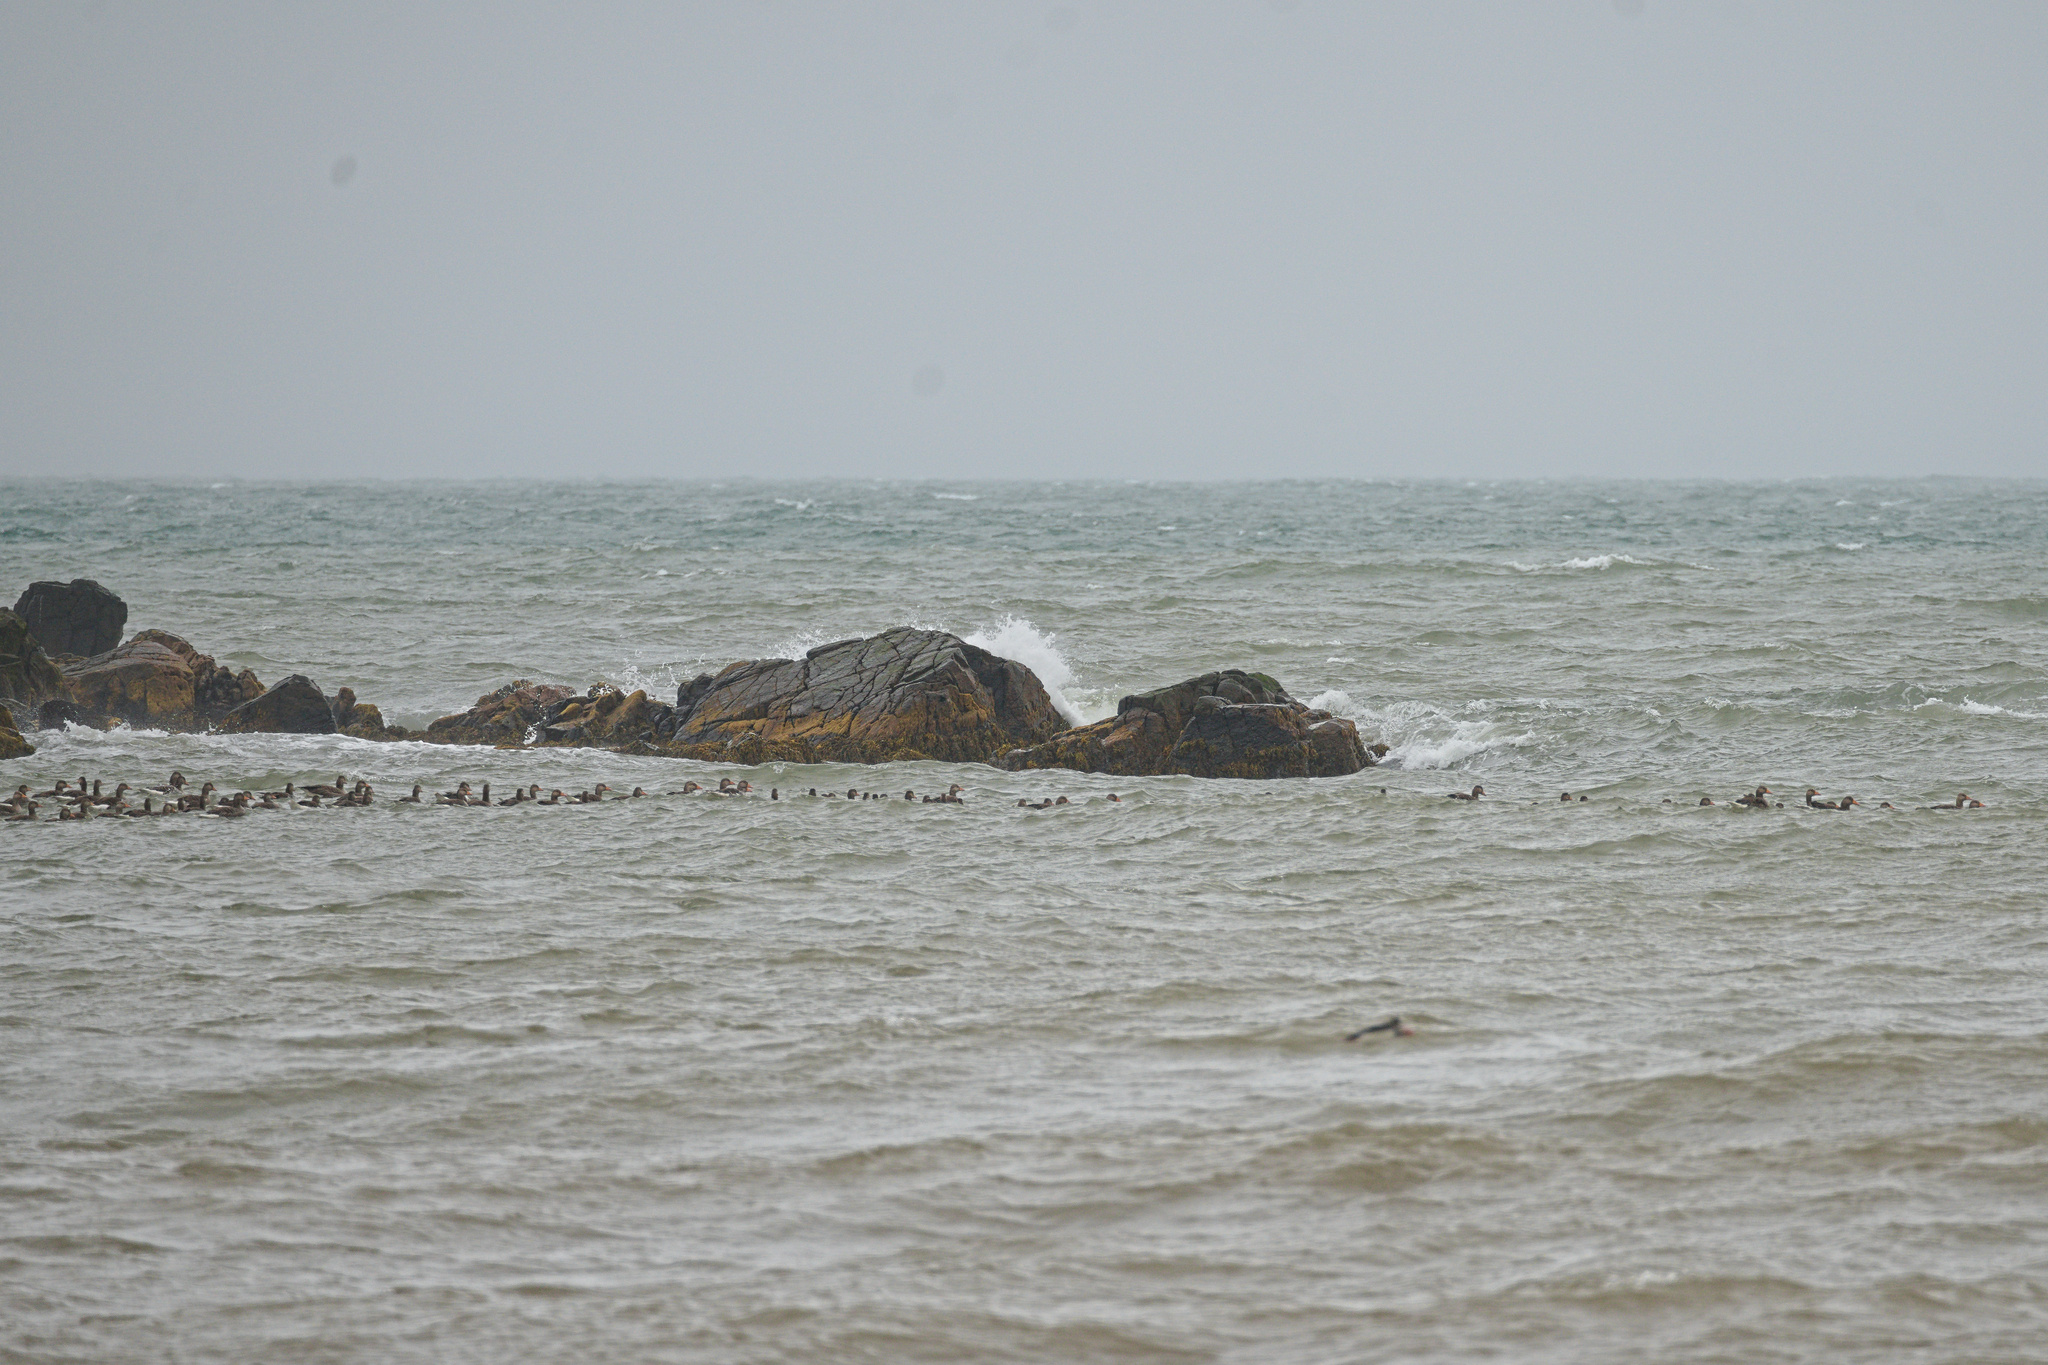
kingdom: Animalia
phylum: Chordata
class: Aves
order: Anseriformes
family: Anatidae
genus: Anser
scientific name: Anser anser
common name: Greylag goose
